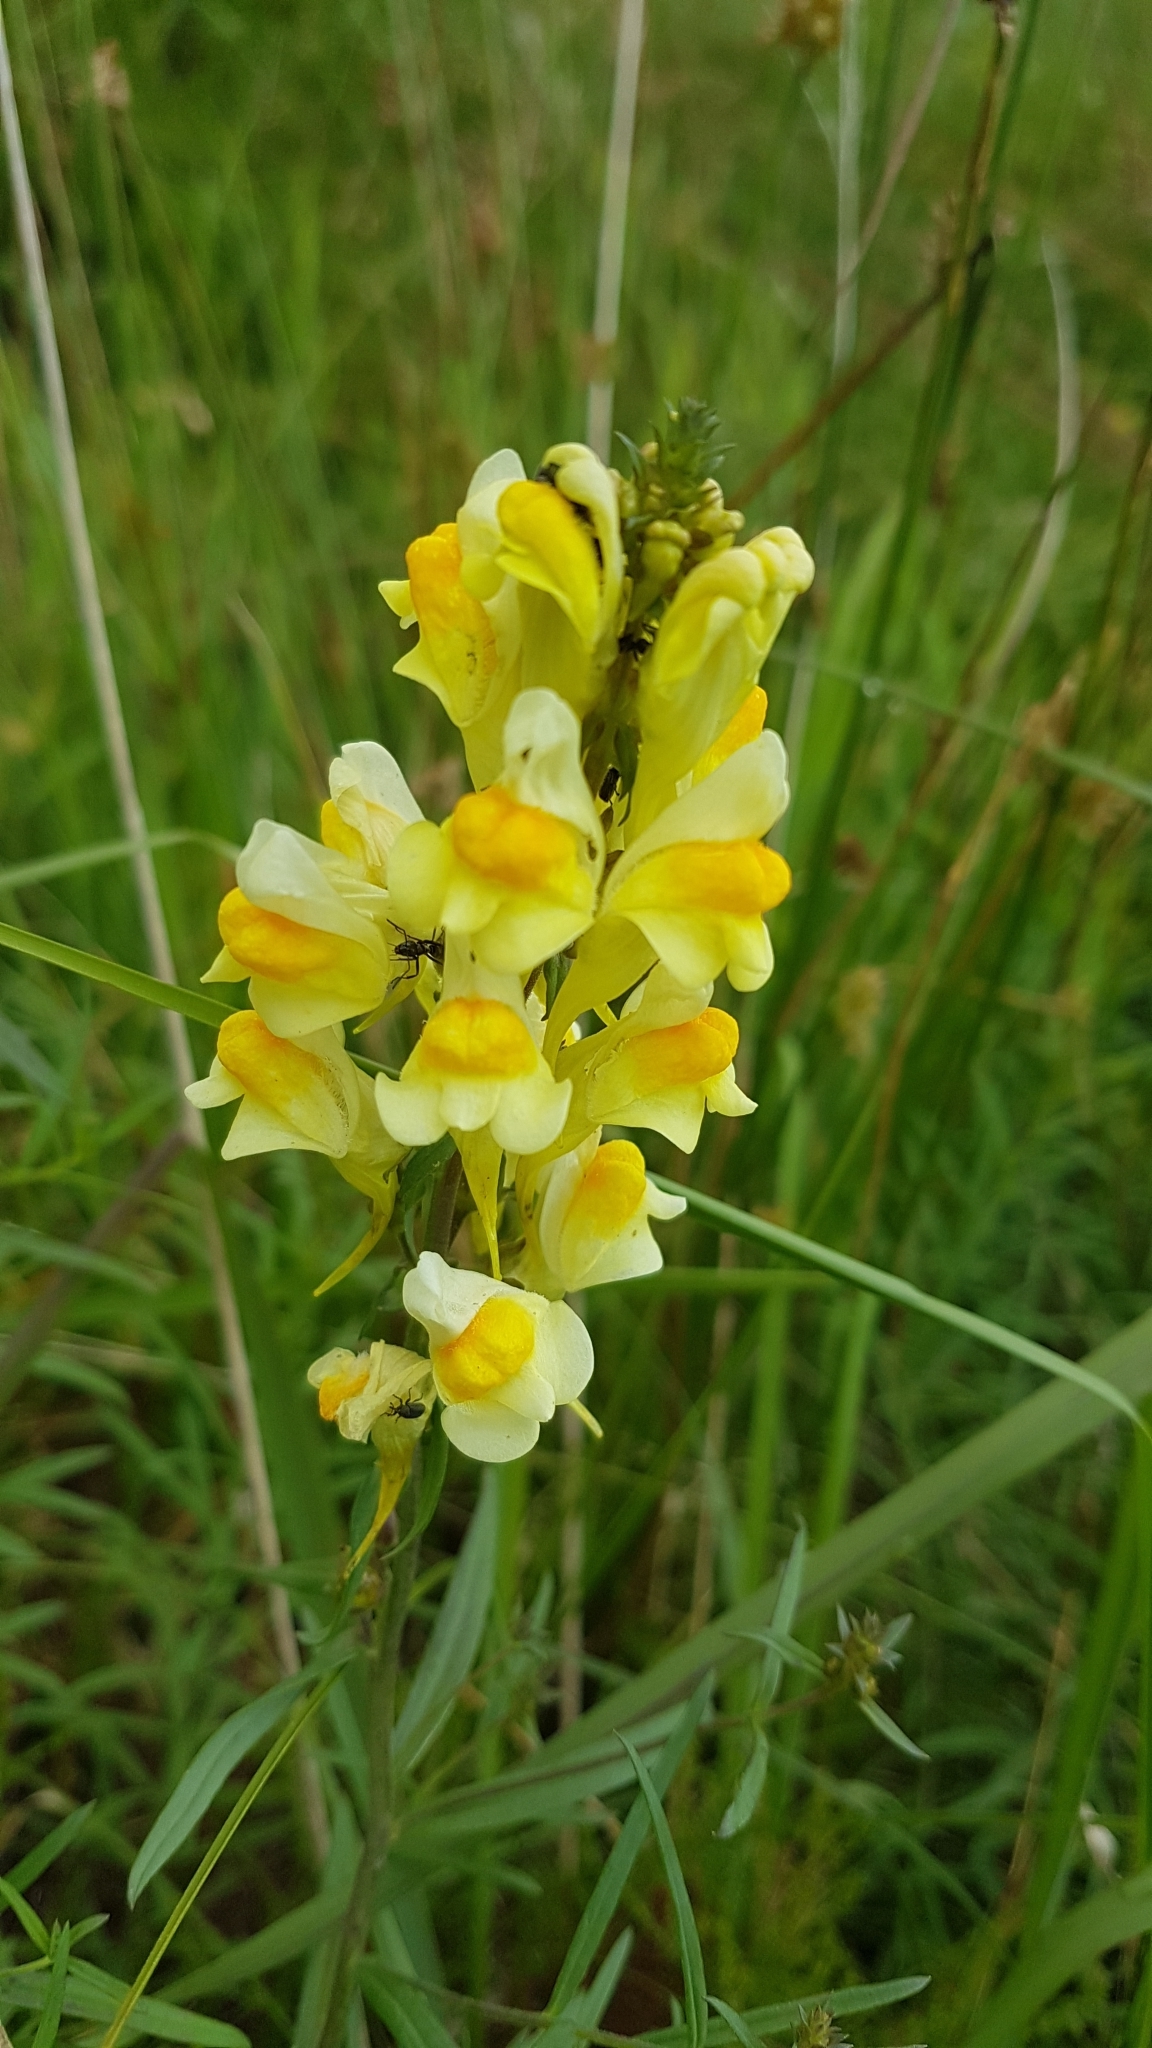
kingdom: Plantae
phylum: Tracheophyta
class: Magnoliopsida
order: Lamiales
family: Plantaginaceae
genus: Linaria
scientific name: Linaria vulgaris
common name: Butter and eggs
